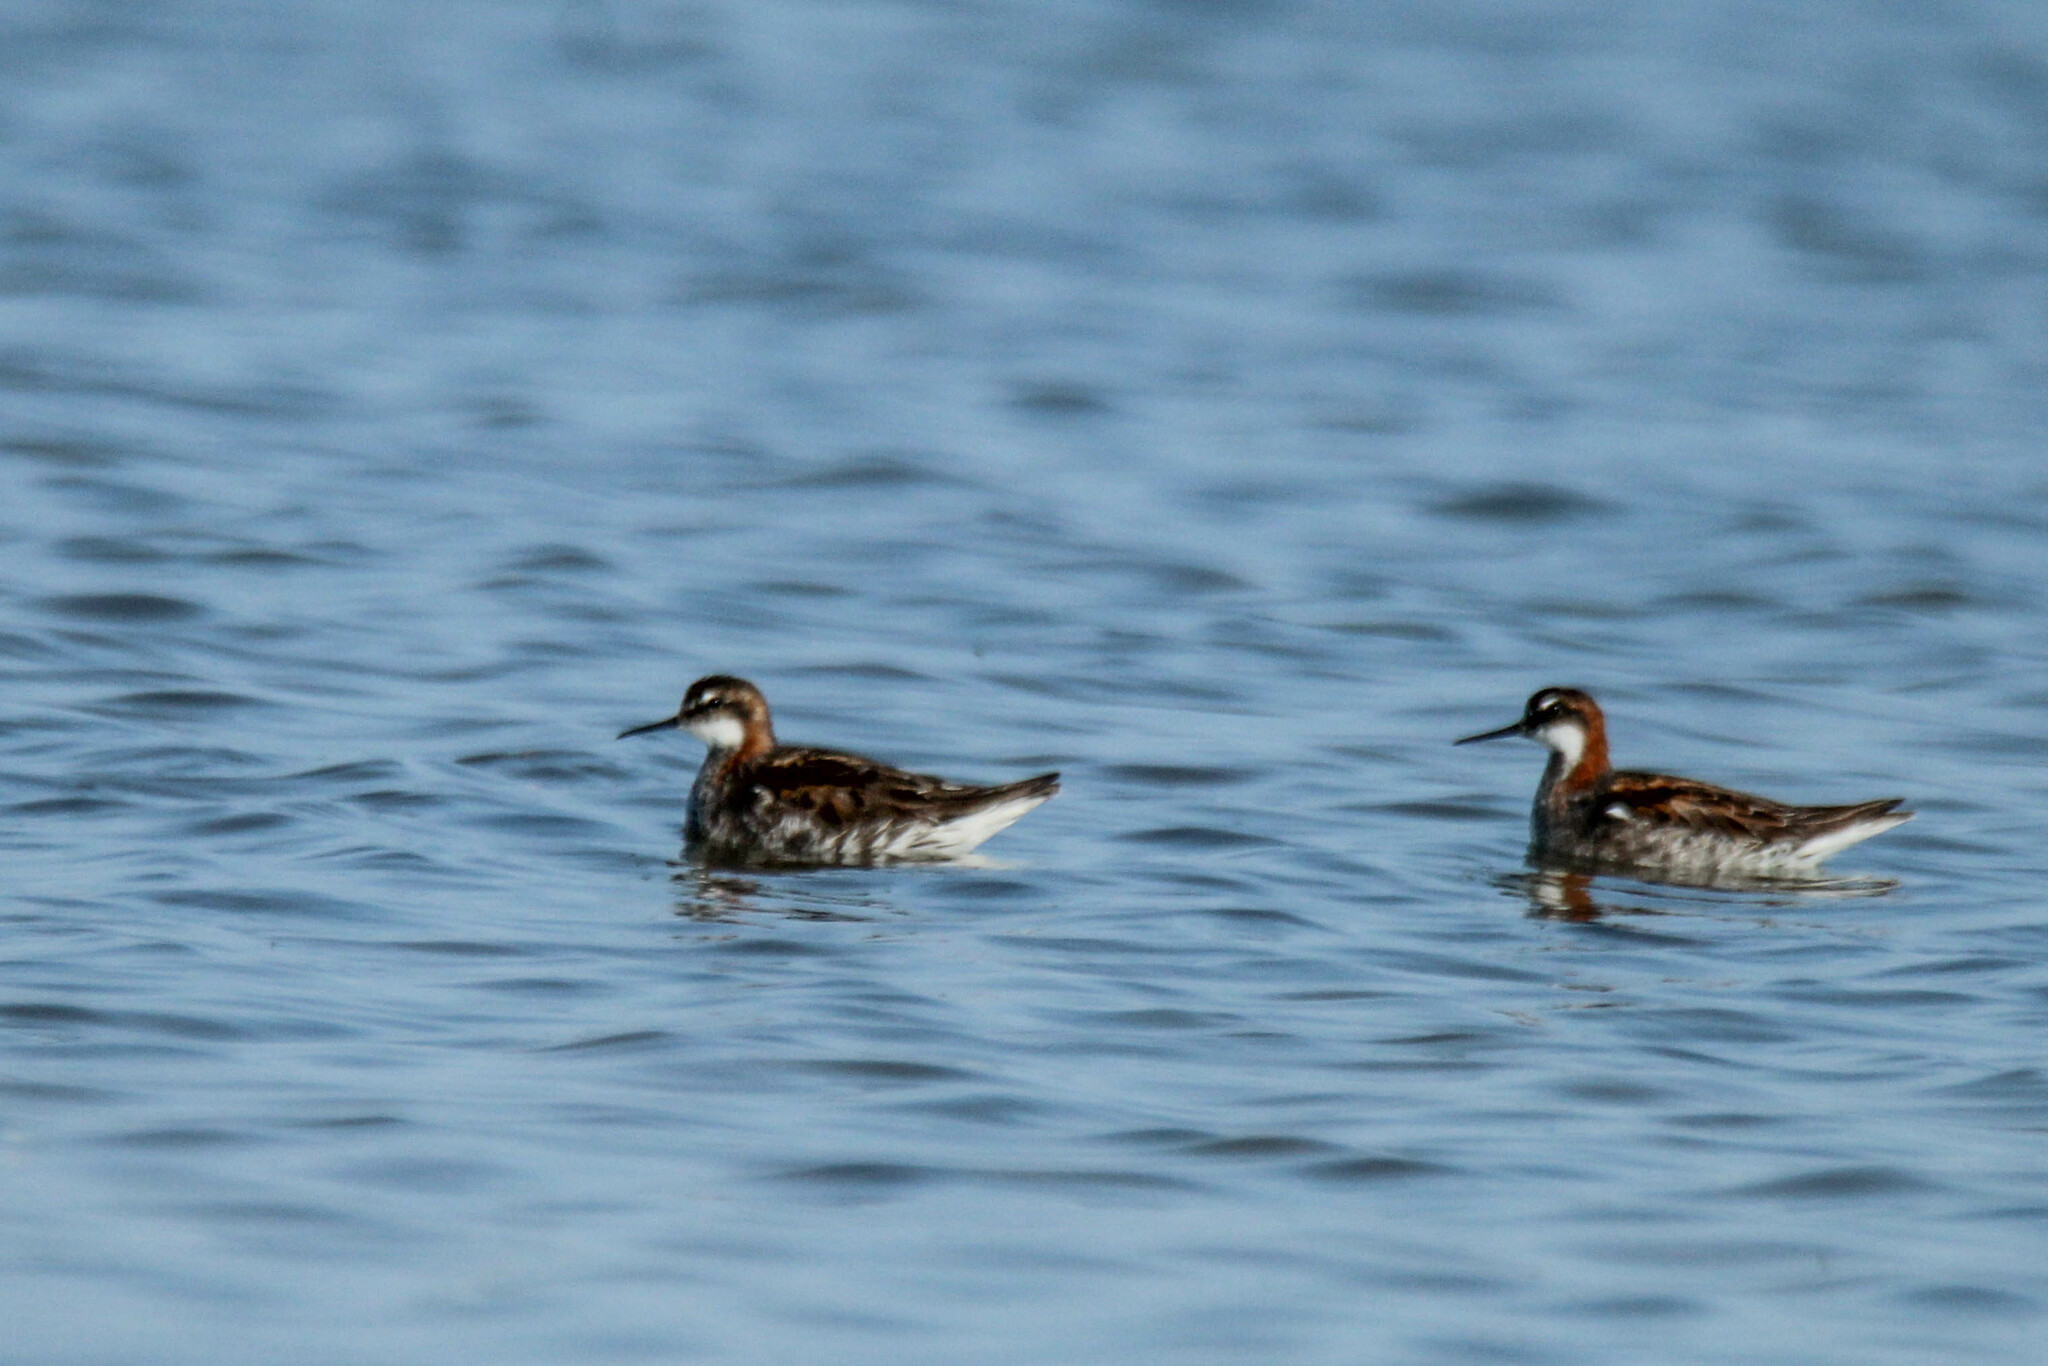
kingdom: Animalia
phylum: Chordata
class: Aves
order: Charadriiformes
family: Scolopacidae
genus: Phalaropus
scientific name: Phalaropus lobatus
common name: Red-necked phalarope
